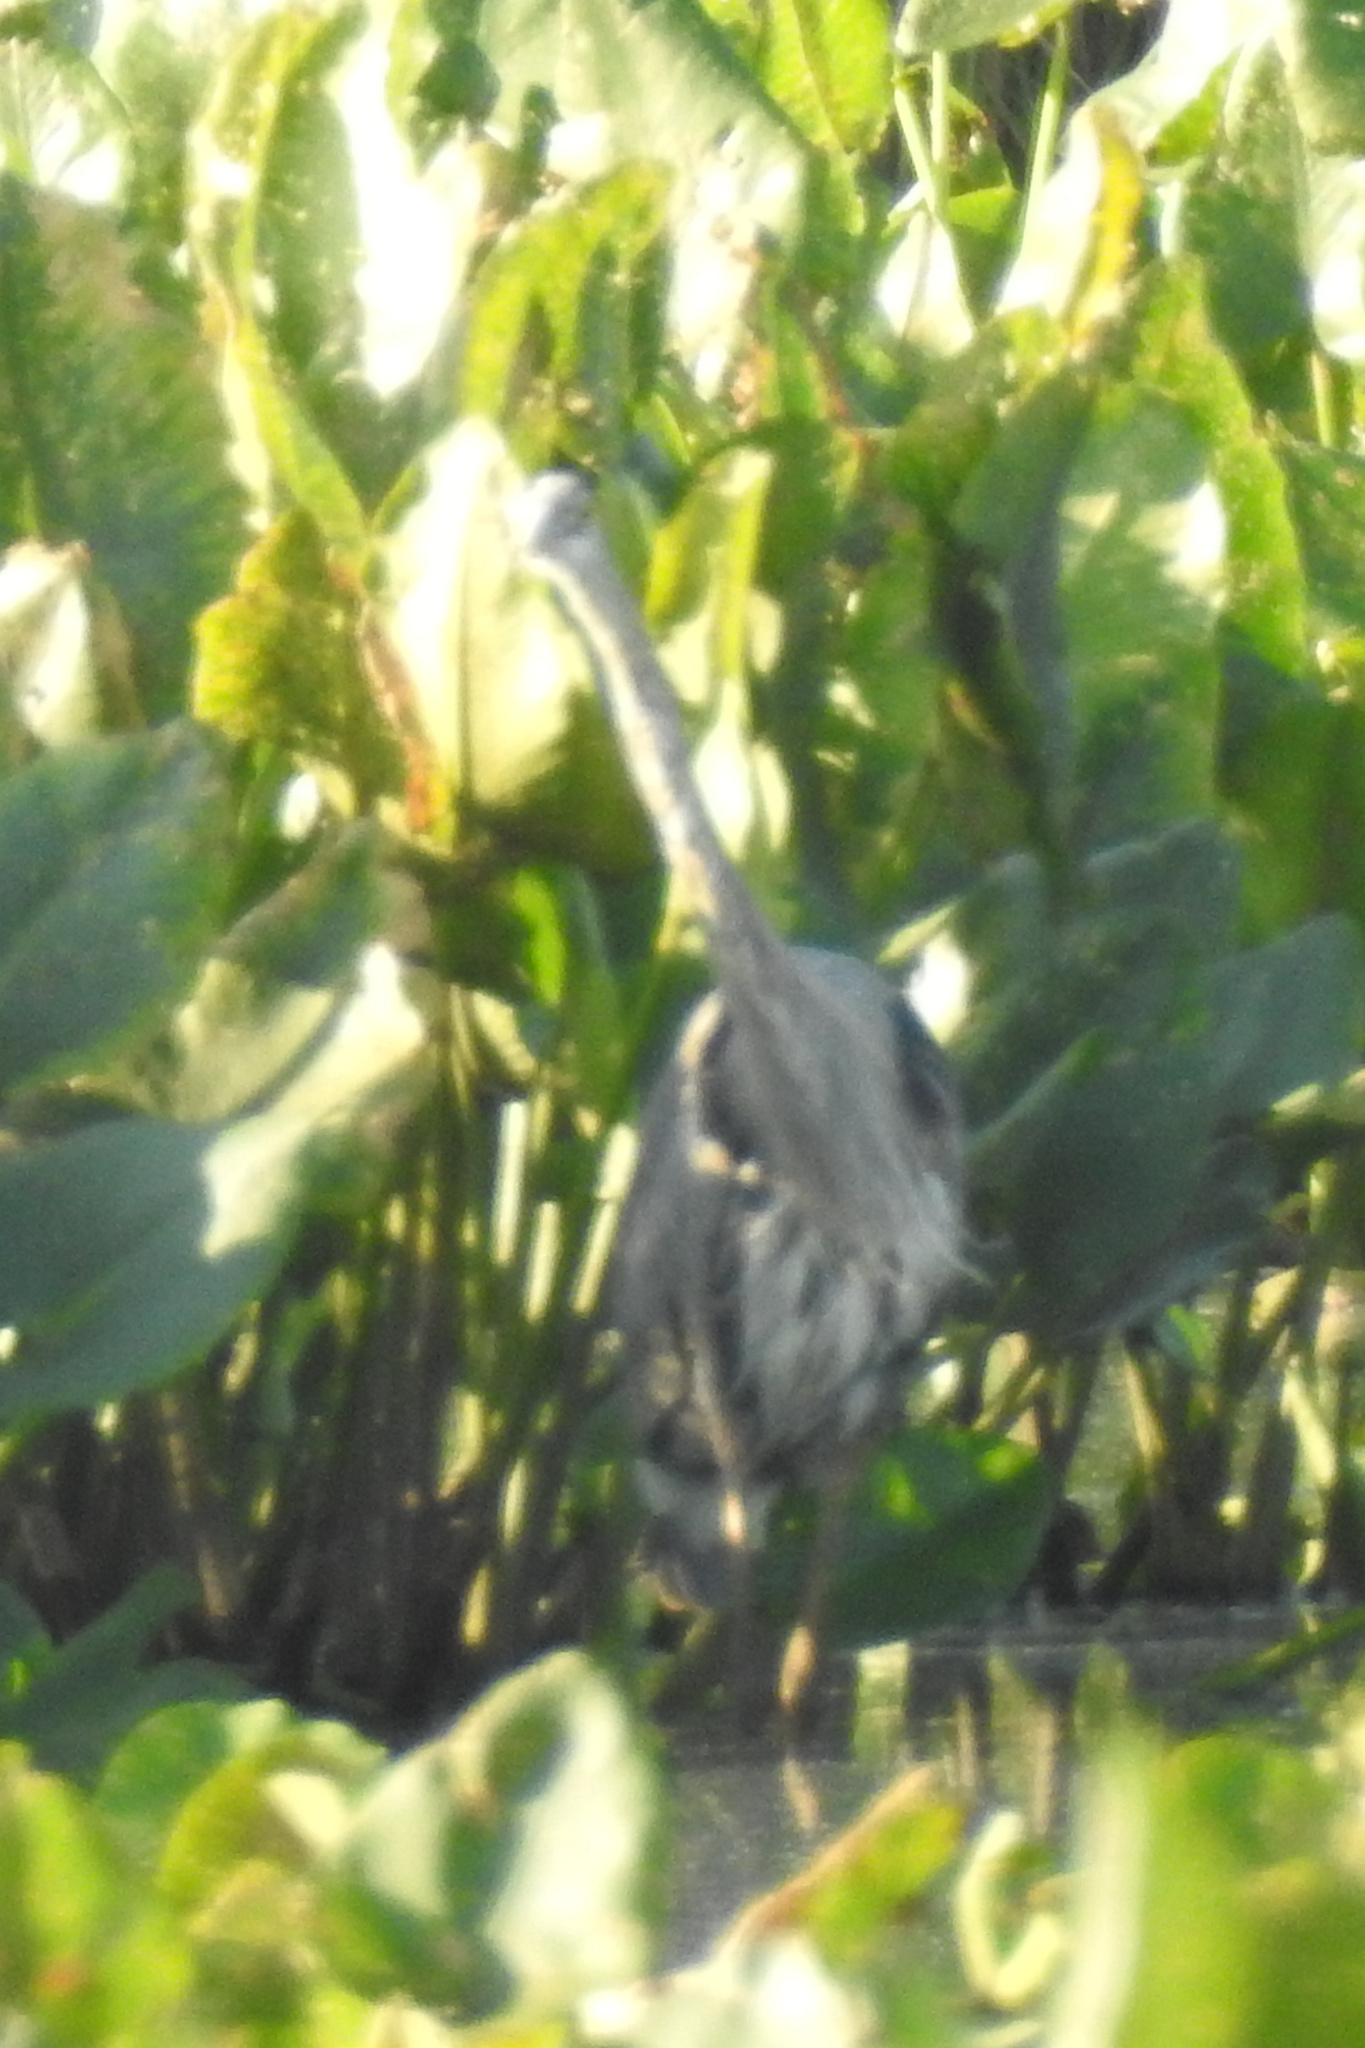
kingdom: Animalia
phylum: Chordata
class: Aves
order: Pelecaniformes
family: Ardeidae
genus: Ardea
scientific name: Ardea herodias
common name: Great blue heron
